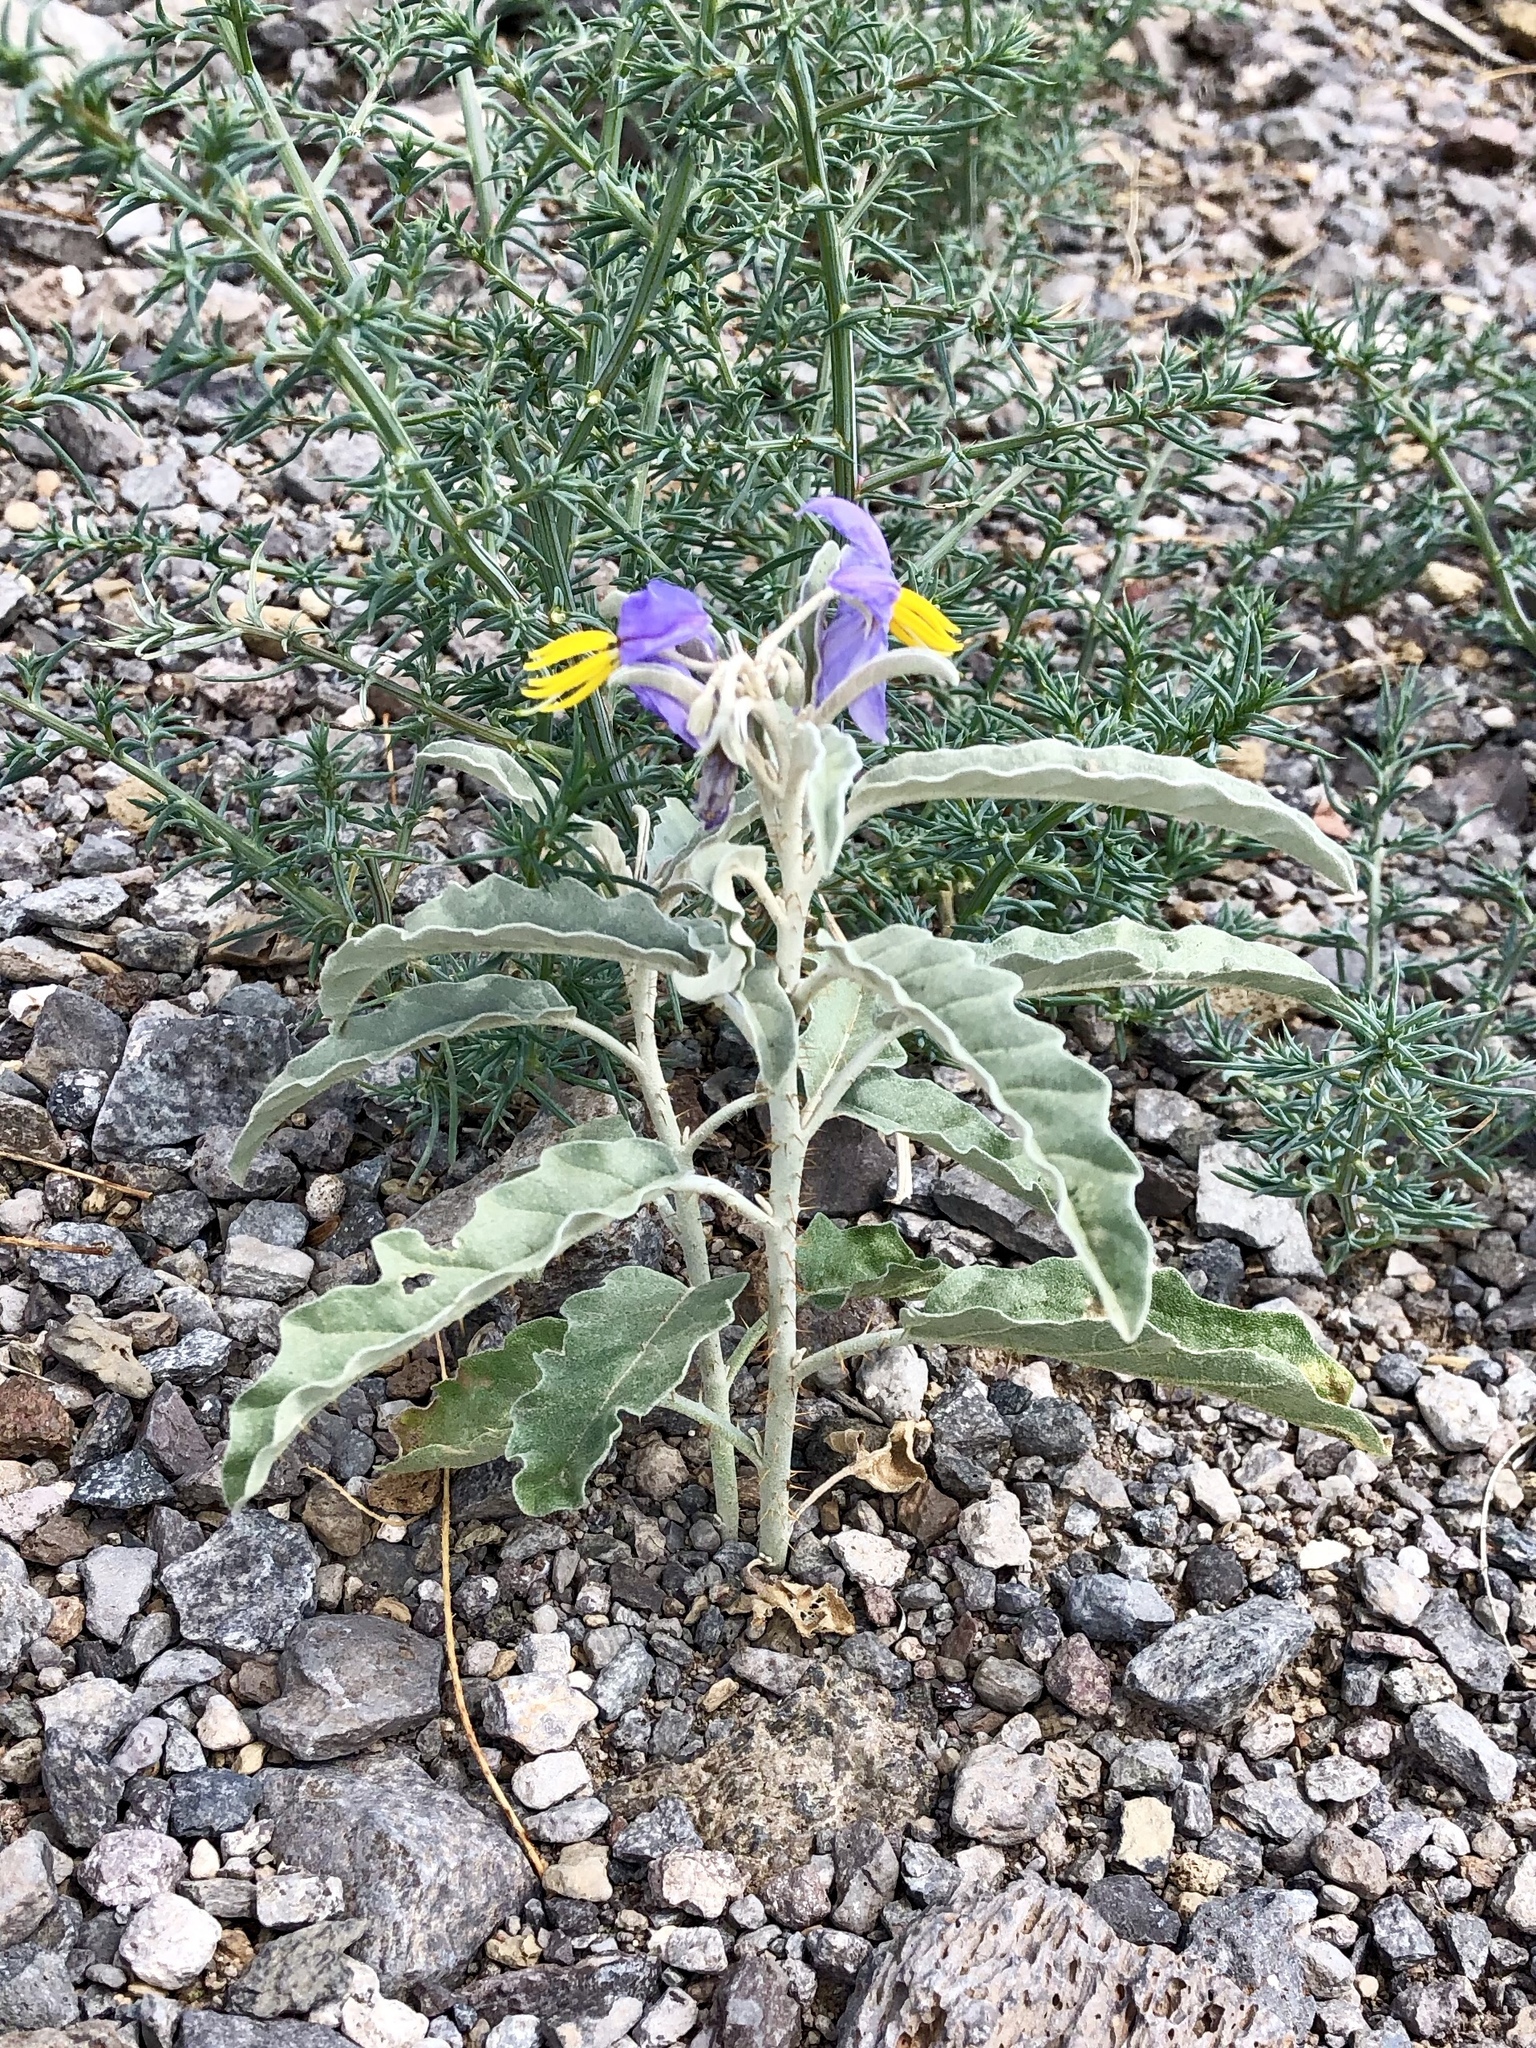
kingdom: Plantae
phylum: Tracheophyta
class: Magnoliopsida
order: Solanales
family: Solanaceae
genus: Solanum
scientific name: Solanum elaeagnifolium
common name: Silverleaf nightshade
